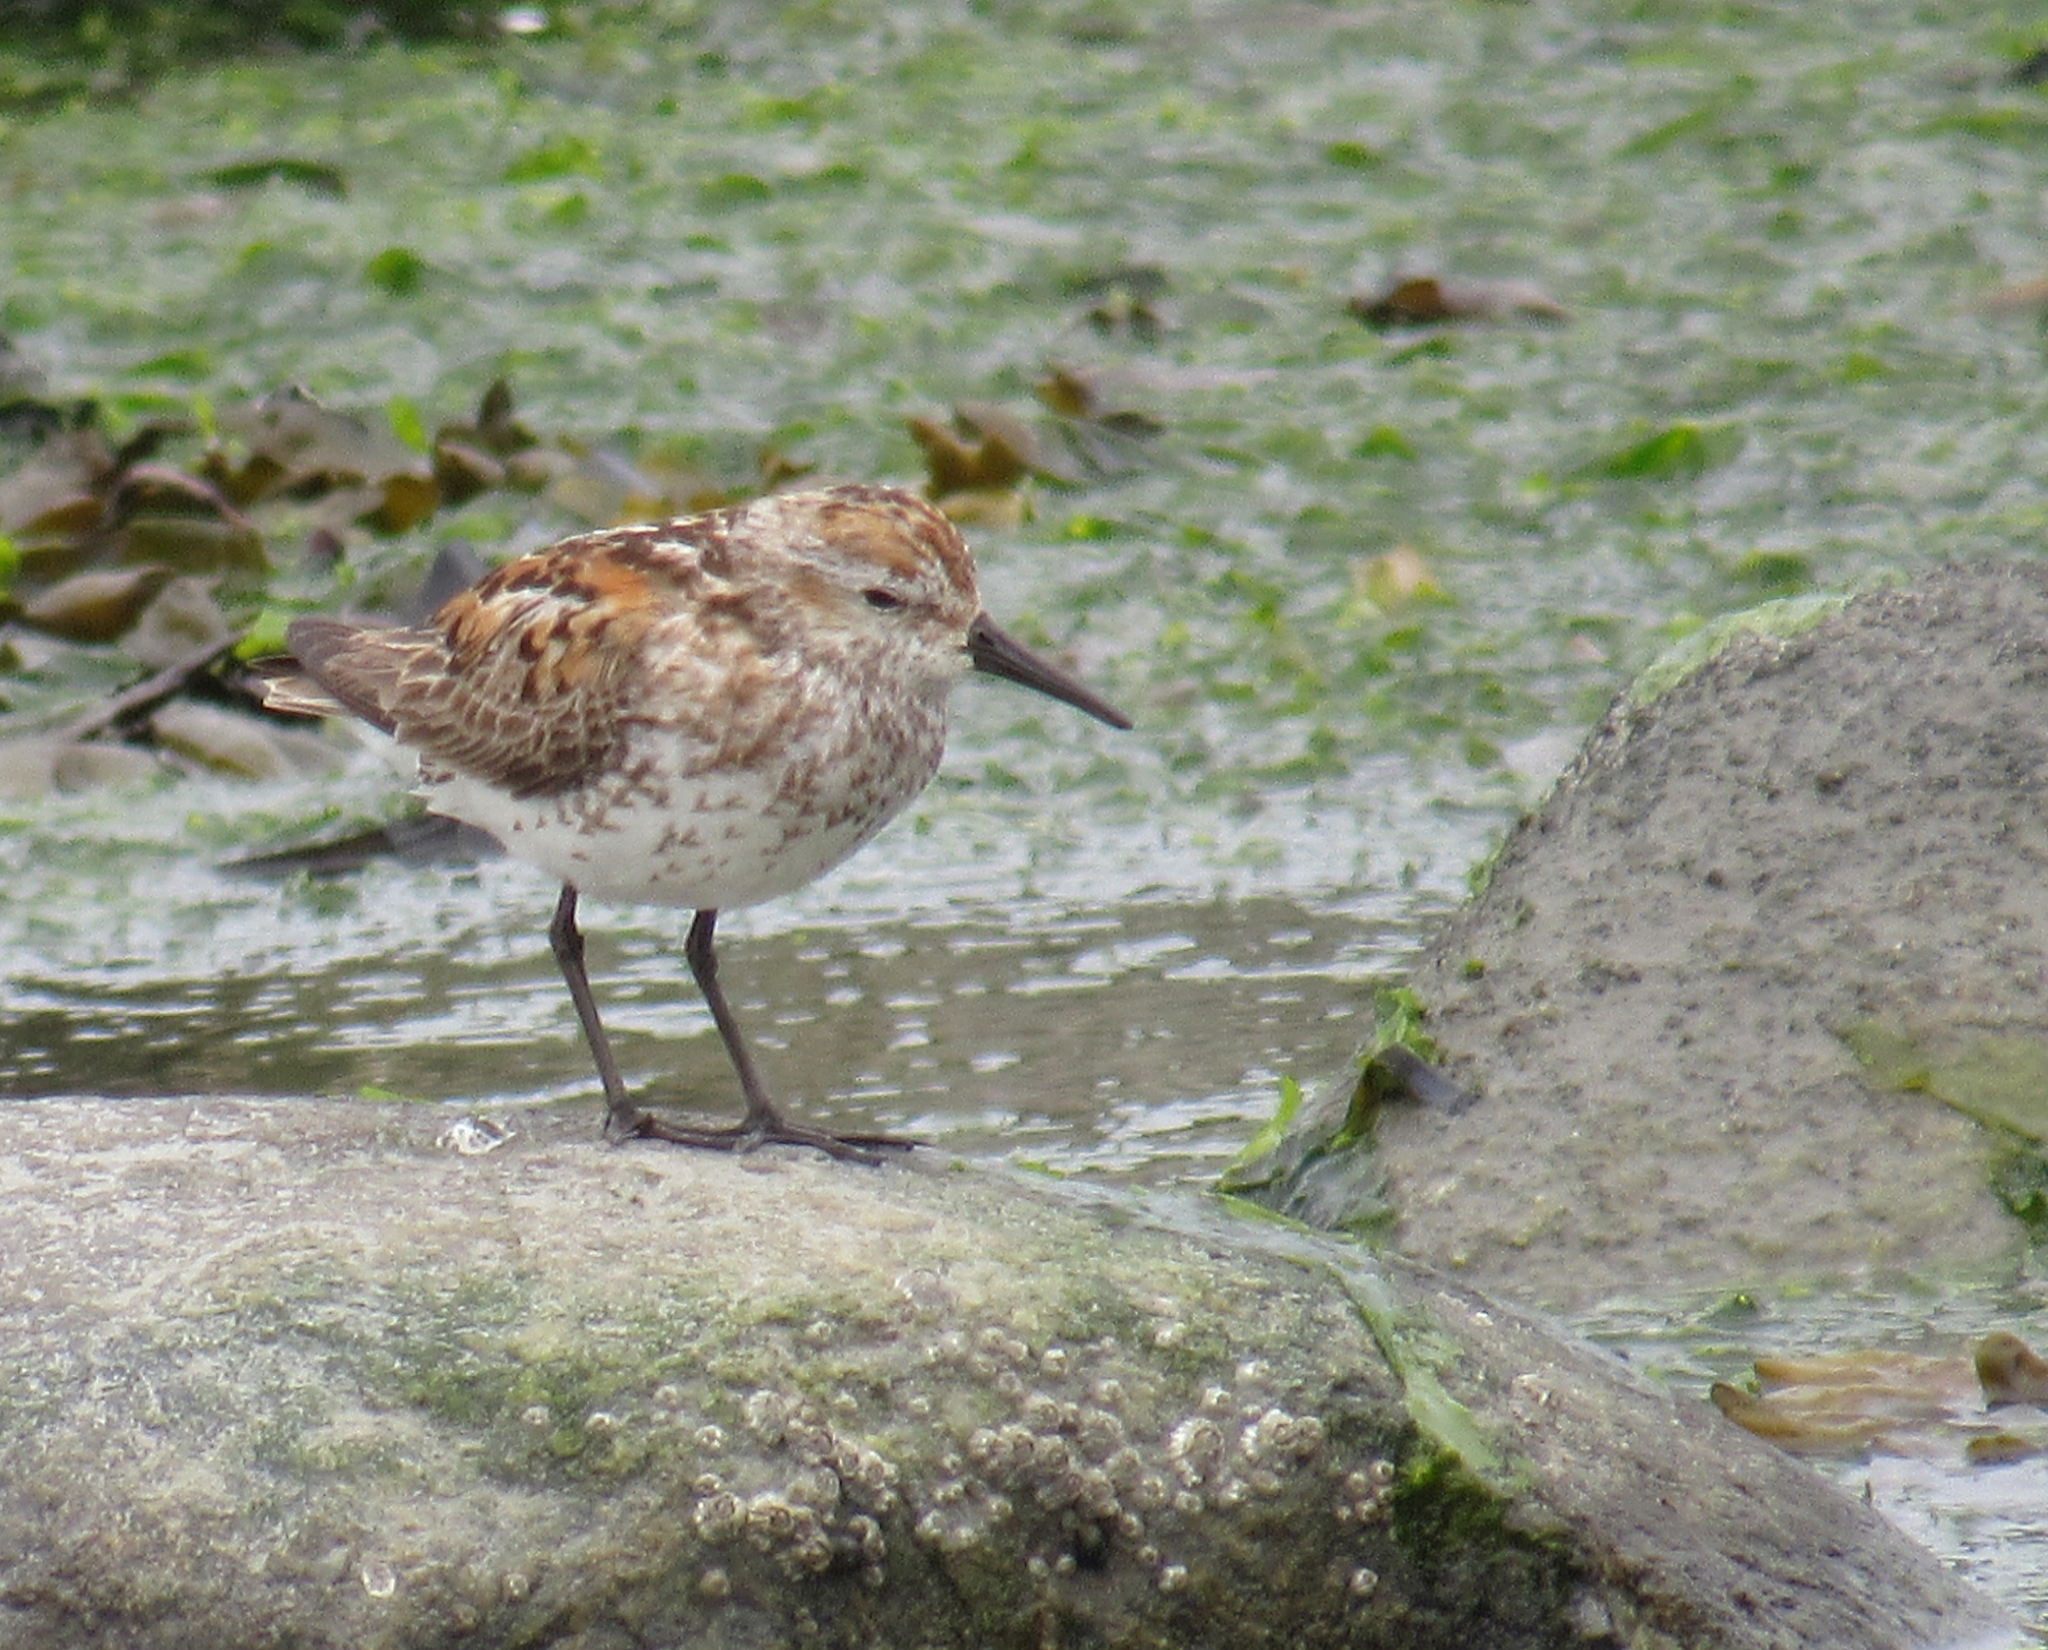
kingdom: Animalia
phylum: Chordata
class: Aves
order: Charadriiformes
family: Scolopacidae
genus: Calidris
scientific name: Calidris mauri
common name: Western sandpiper
